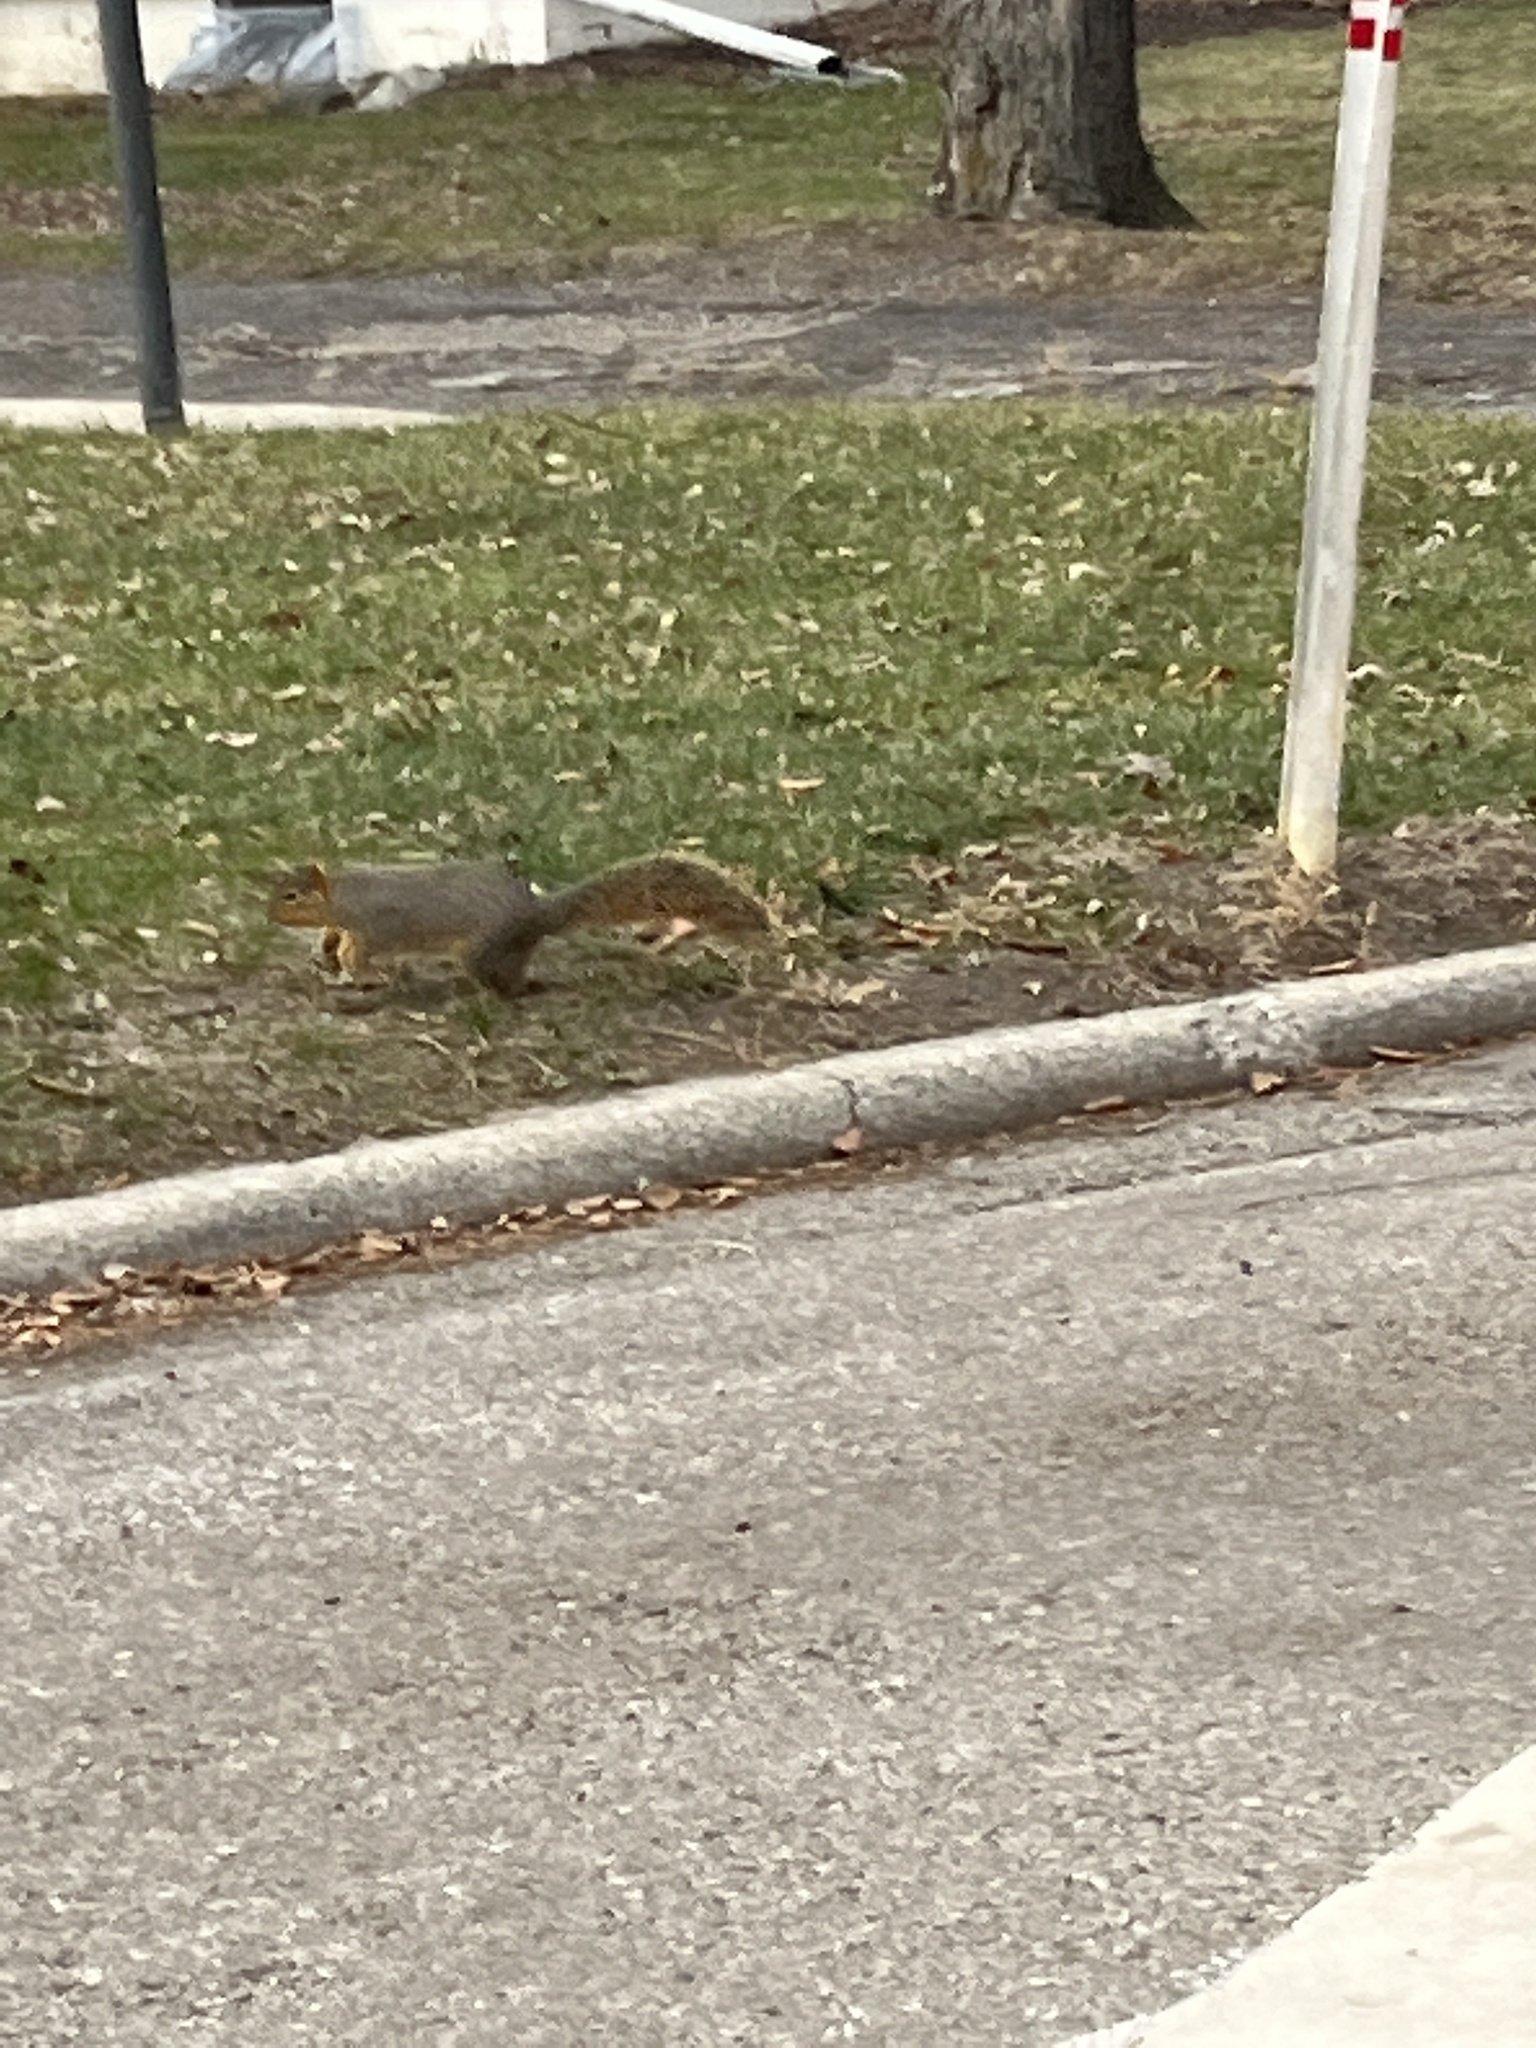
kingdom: Animalia
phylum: Chordata
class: Mammalia
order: Rodentia
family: Sciuridae
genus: Sciurus
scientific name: Sciurus niger
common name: Fox squirrel
